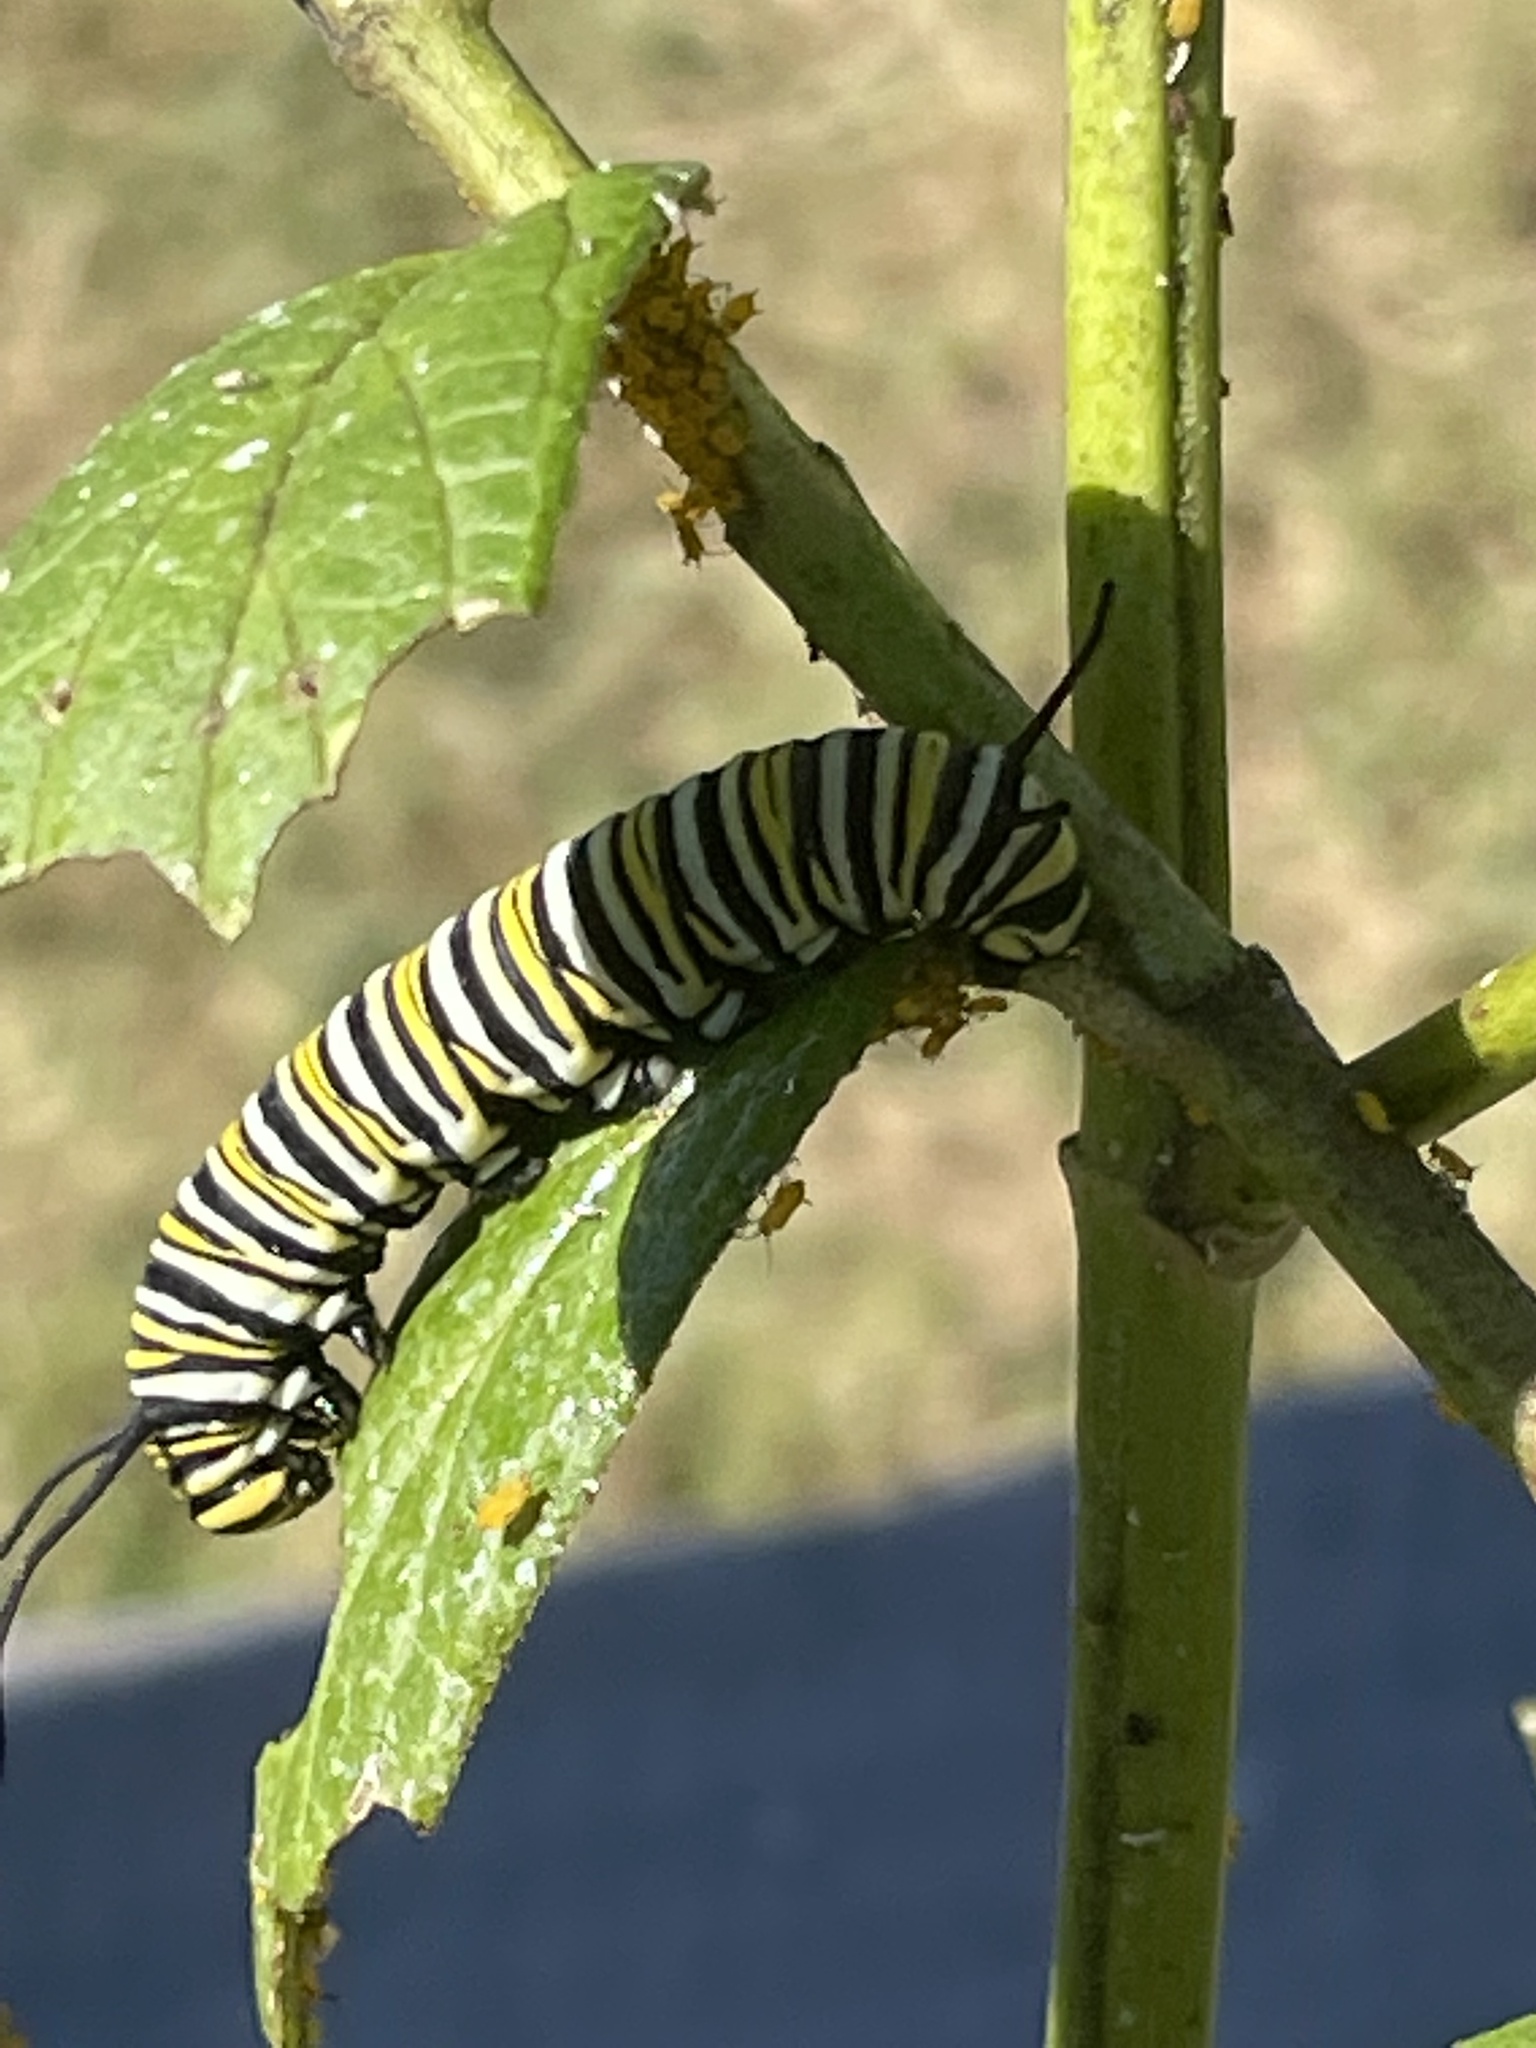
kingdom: Animalia
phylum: Arthropoda
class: Insecta
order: Lepidoptera
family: Nymphalidae
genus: Danaus
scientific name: Danaus plexippus
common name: Monarch
